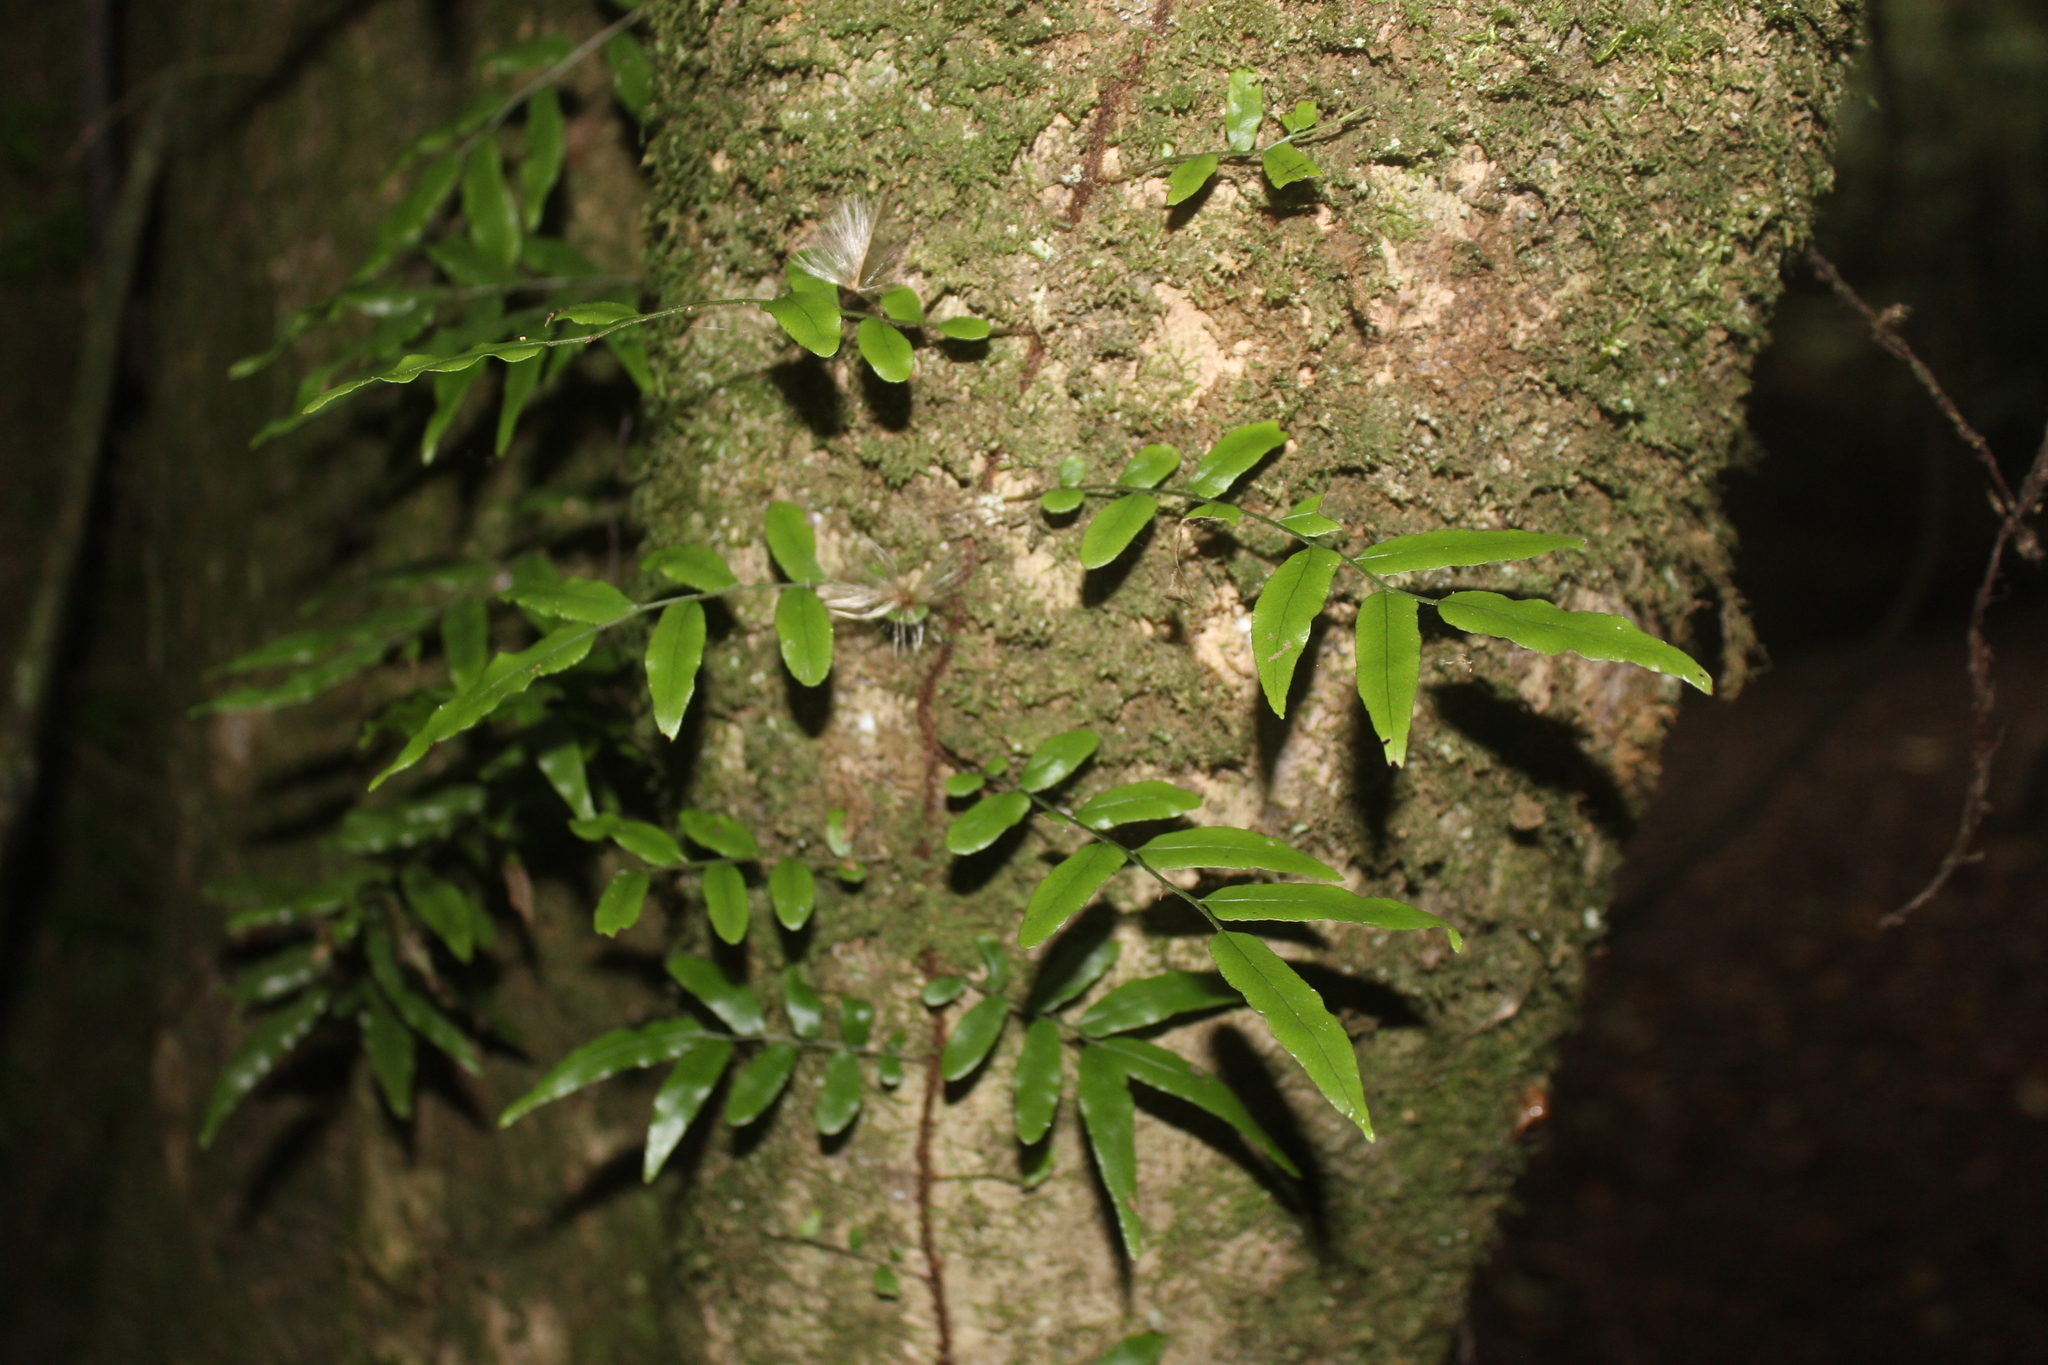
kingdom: Plantae
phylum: Tracheophyta
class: Polypodiopsida
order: Polypodiales
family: Tectariaceae
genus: Arthropteris
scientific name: Arthropteris tenella
